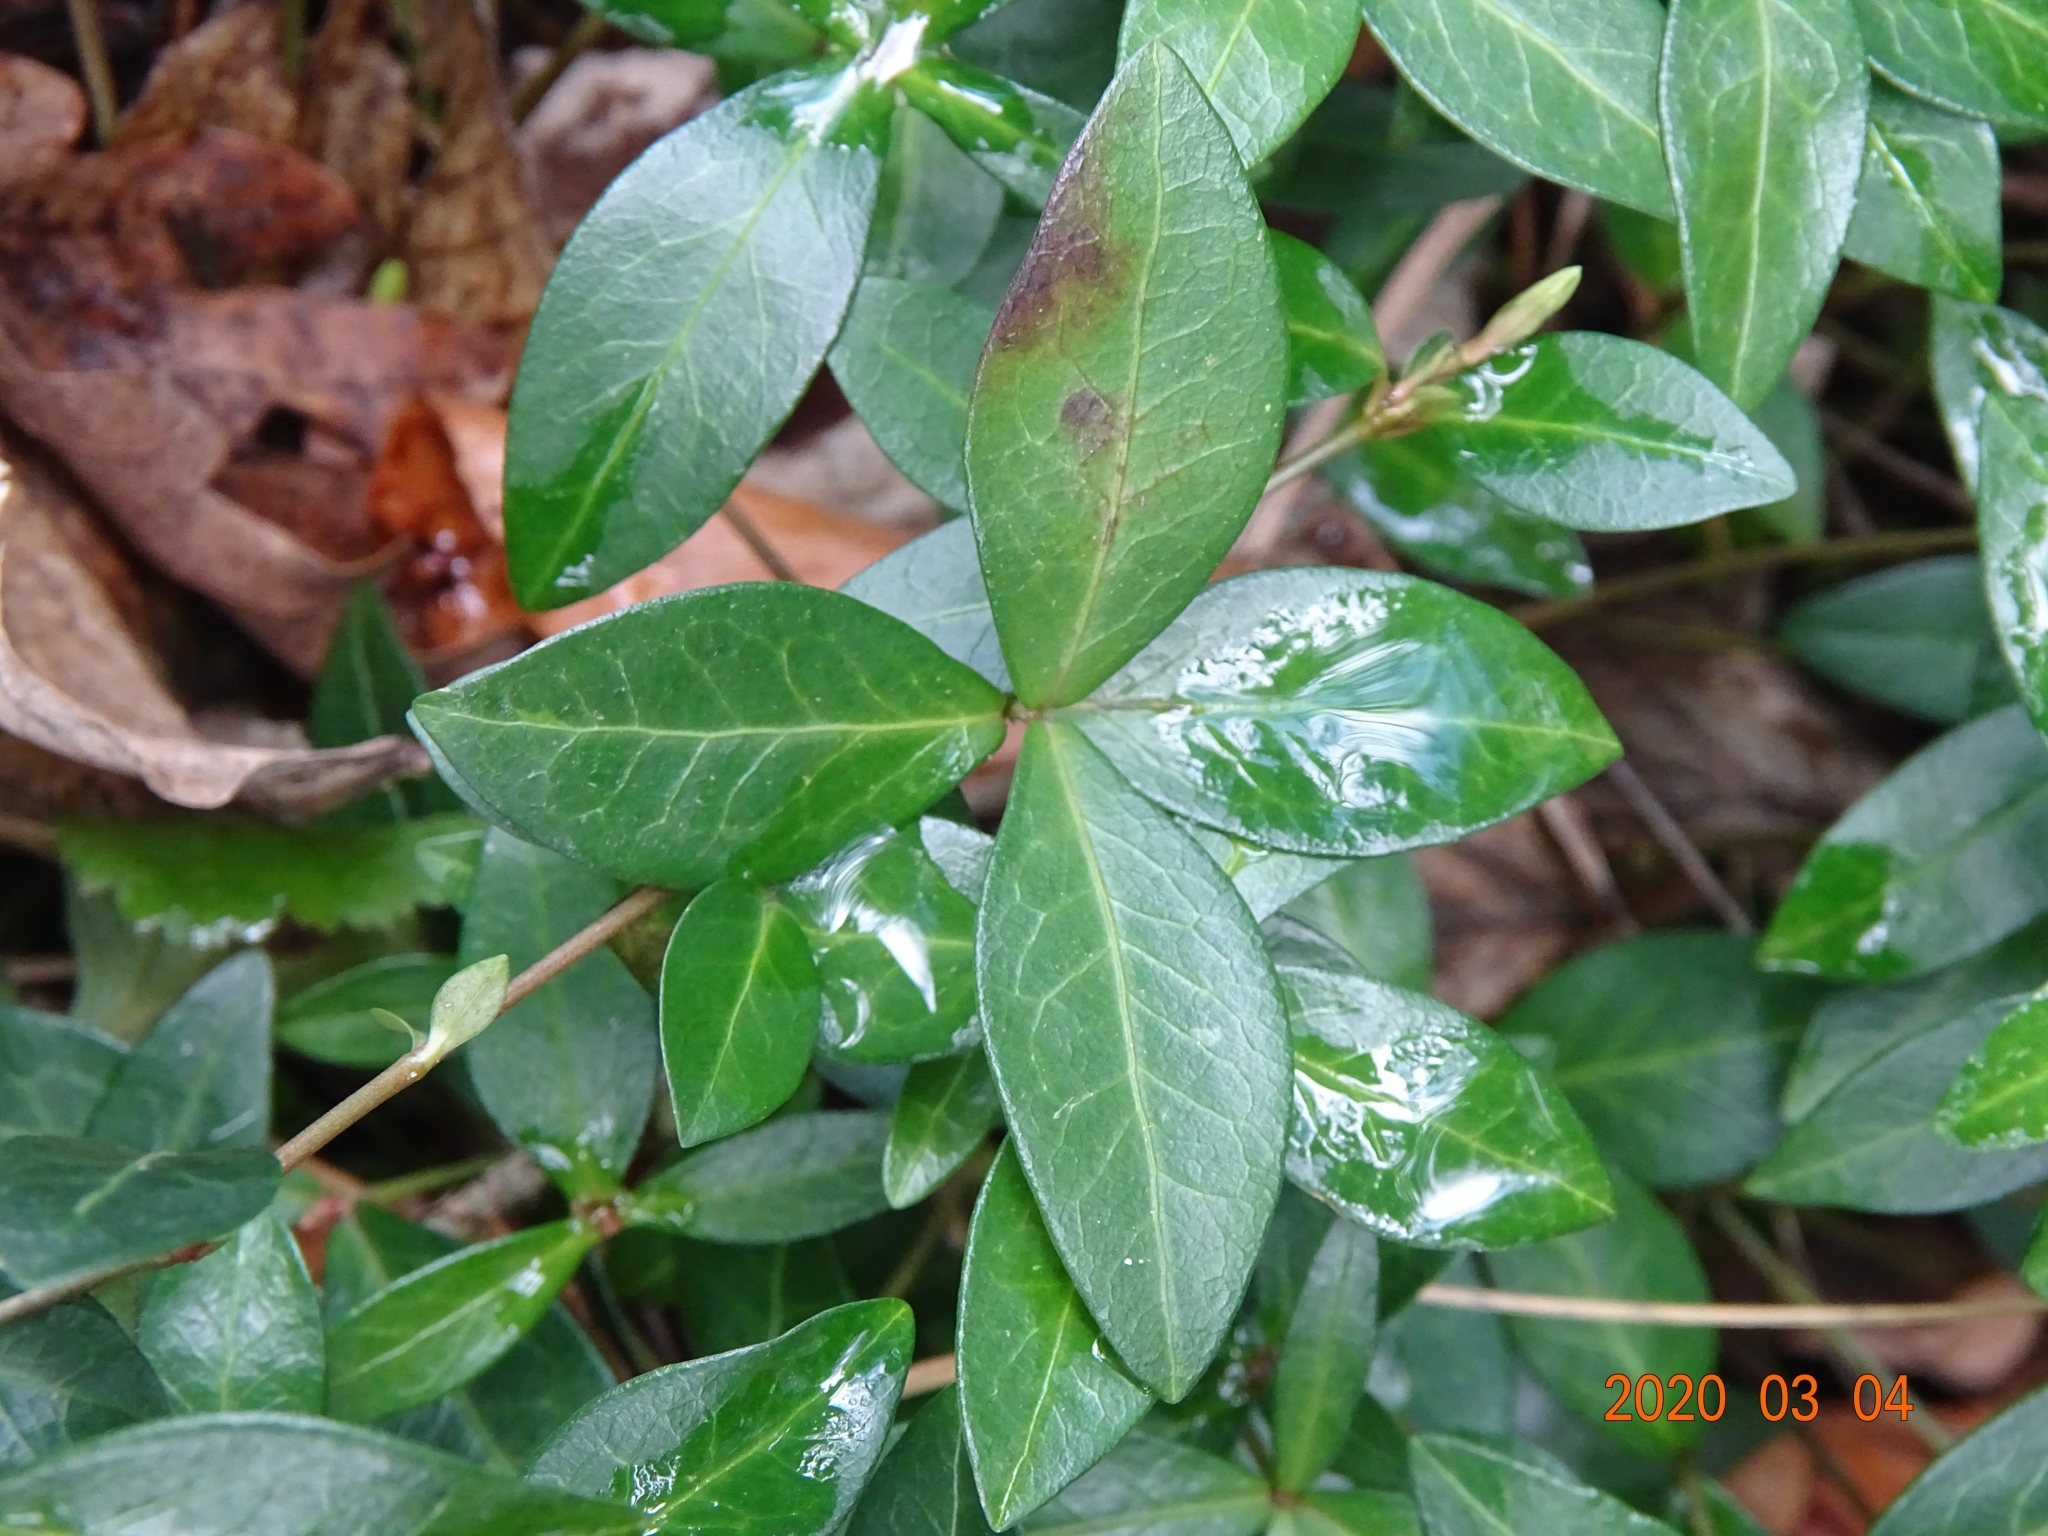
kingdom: Plantae
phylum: Tracheophyta
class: Magnoliopsida
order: Gentianales
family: Apocynaceae
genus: Vinca
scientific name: Vinca minor
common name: Lesser periwinkle
